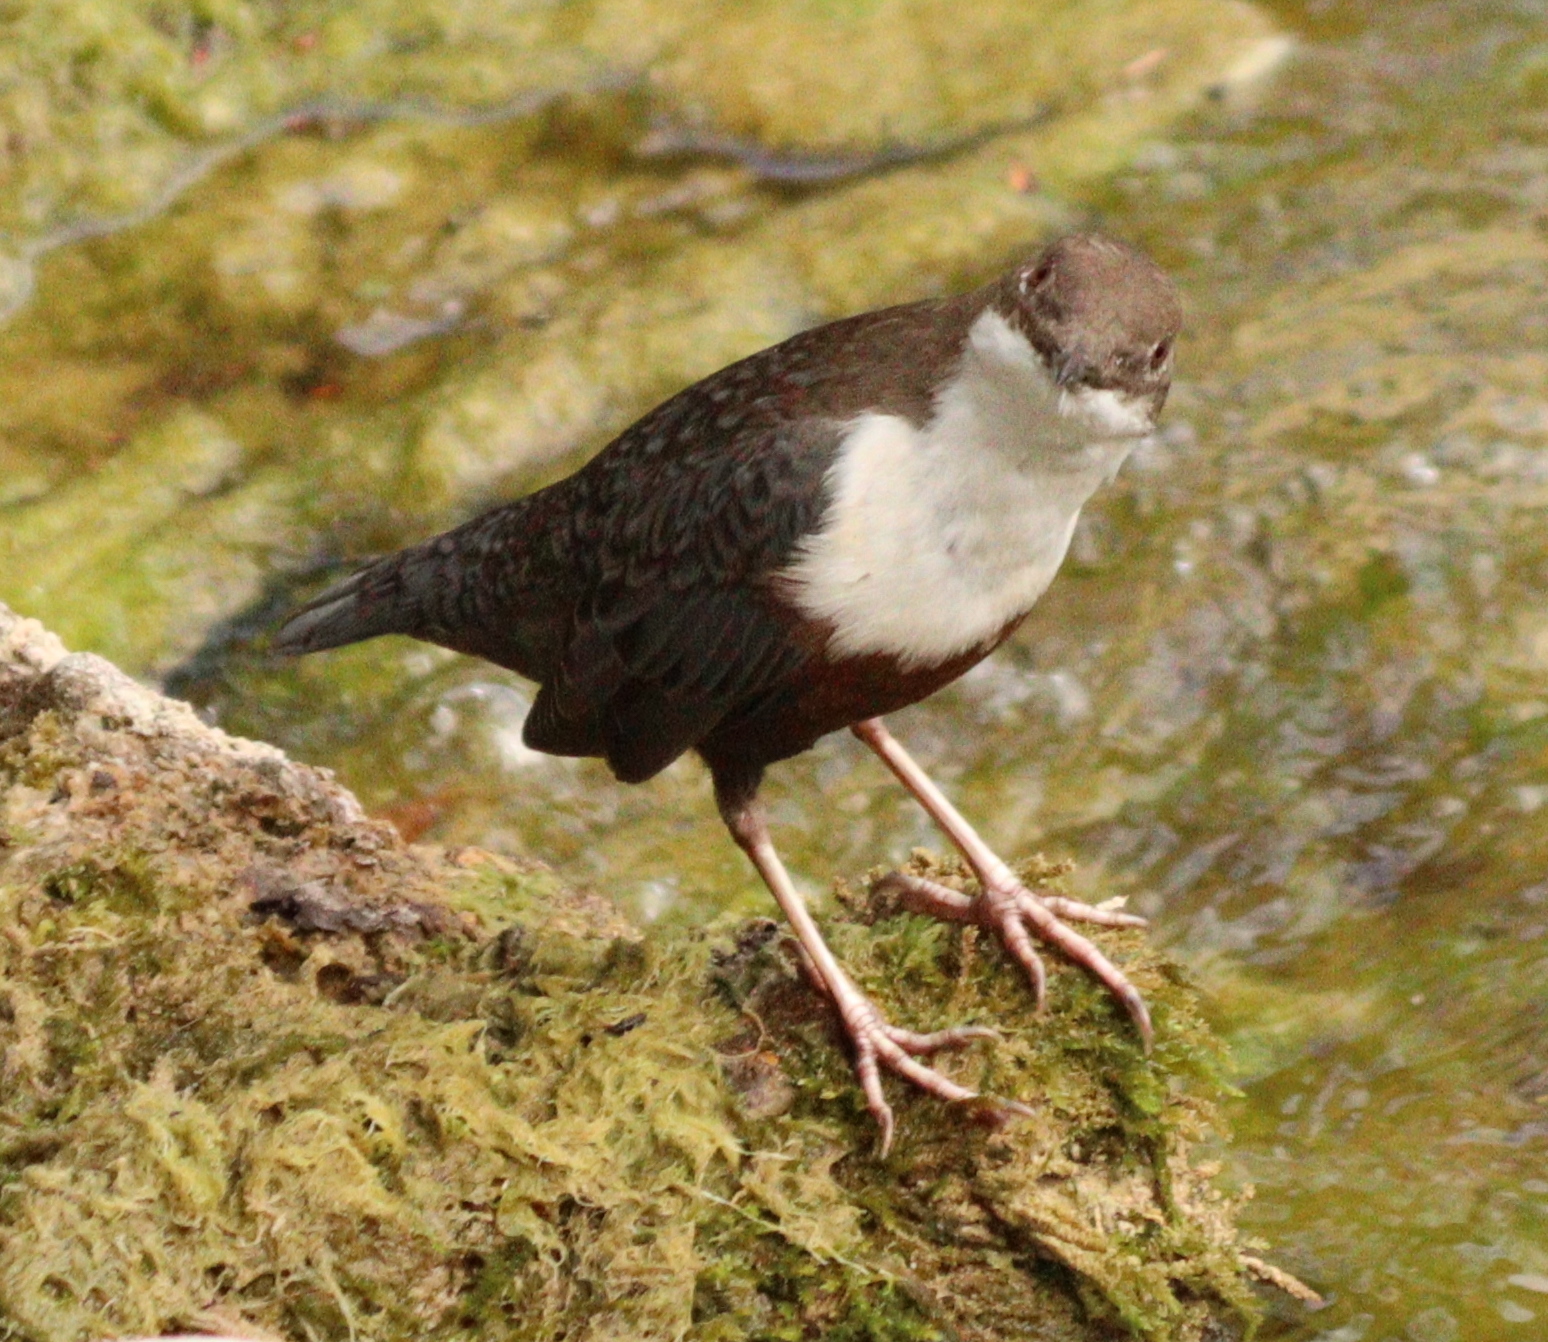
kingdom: Animalia
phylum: Chordata
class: Aves
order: Passeriformes
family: Cinclidae
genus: Cinclus
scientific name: Cinclus cinclus
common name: White-throated dipper
